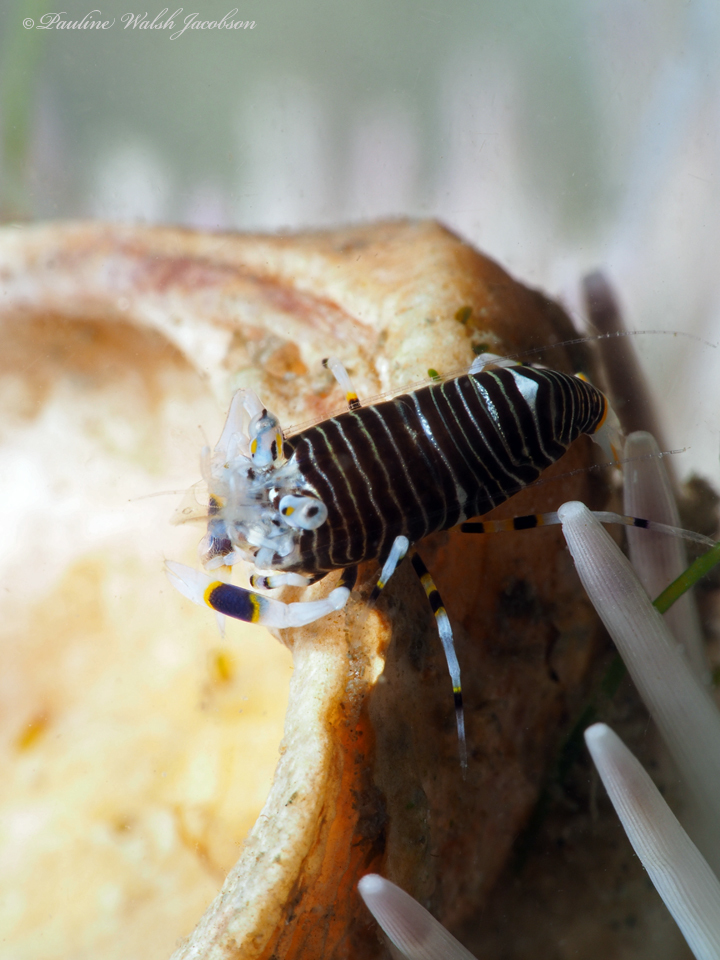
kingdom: Animalia
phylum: Arthropoda
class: Malacostraca
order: Decapoda
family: Palaemonidae
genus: Gnathophyllum
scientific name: Gnathophyllum americanum
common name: Bumblebee shrimp
